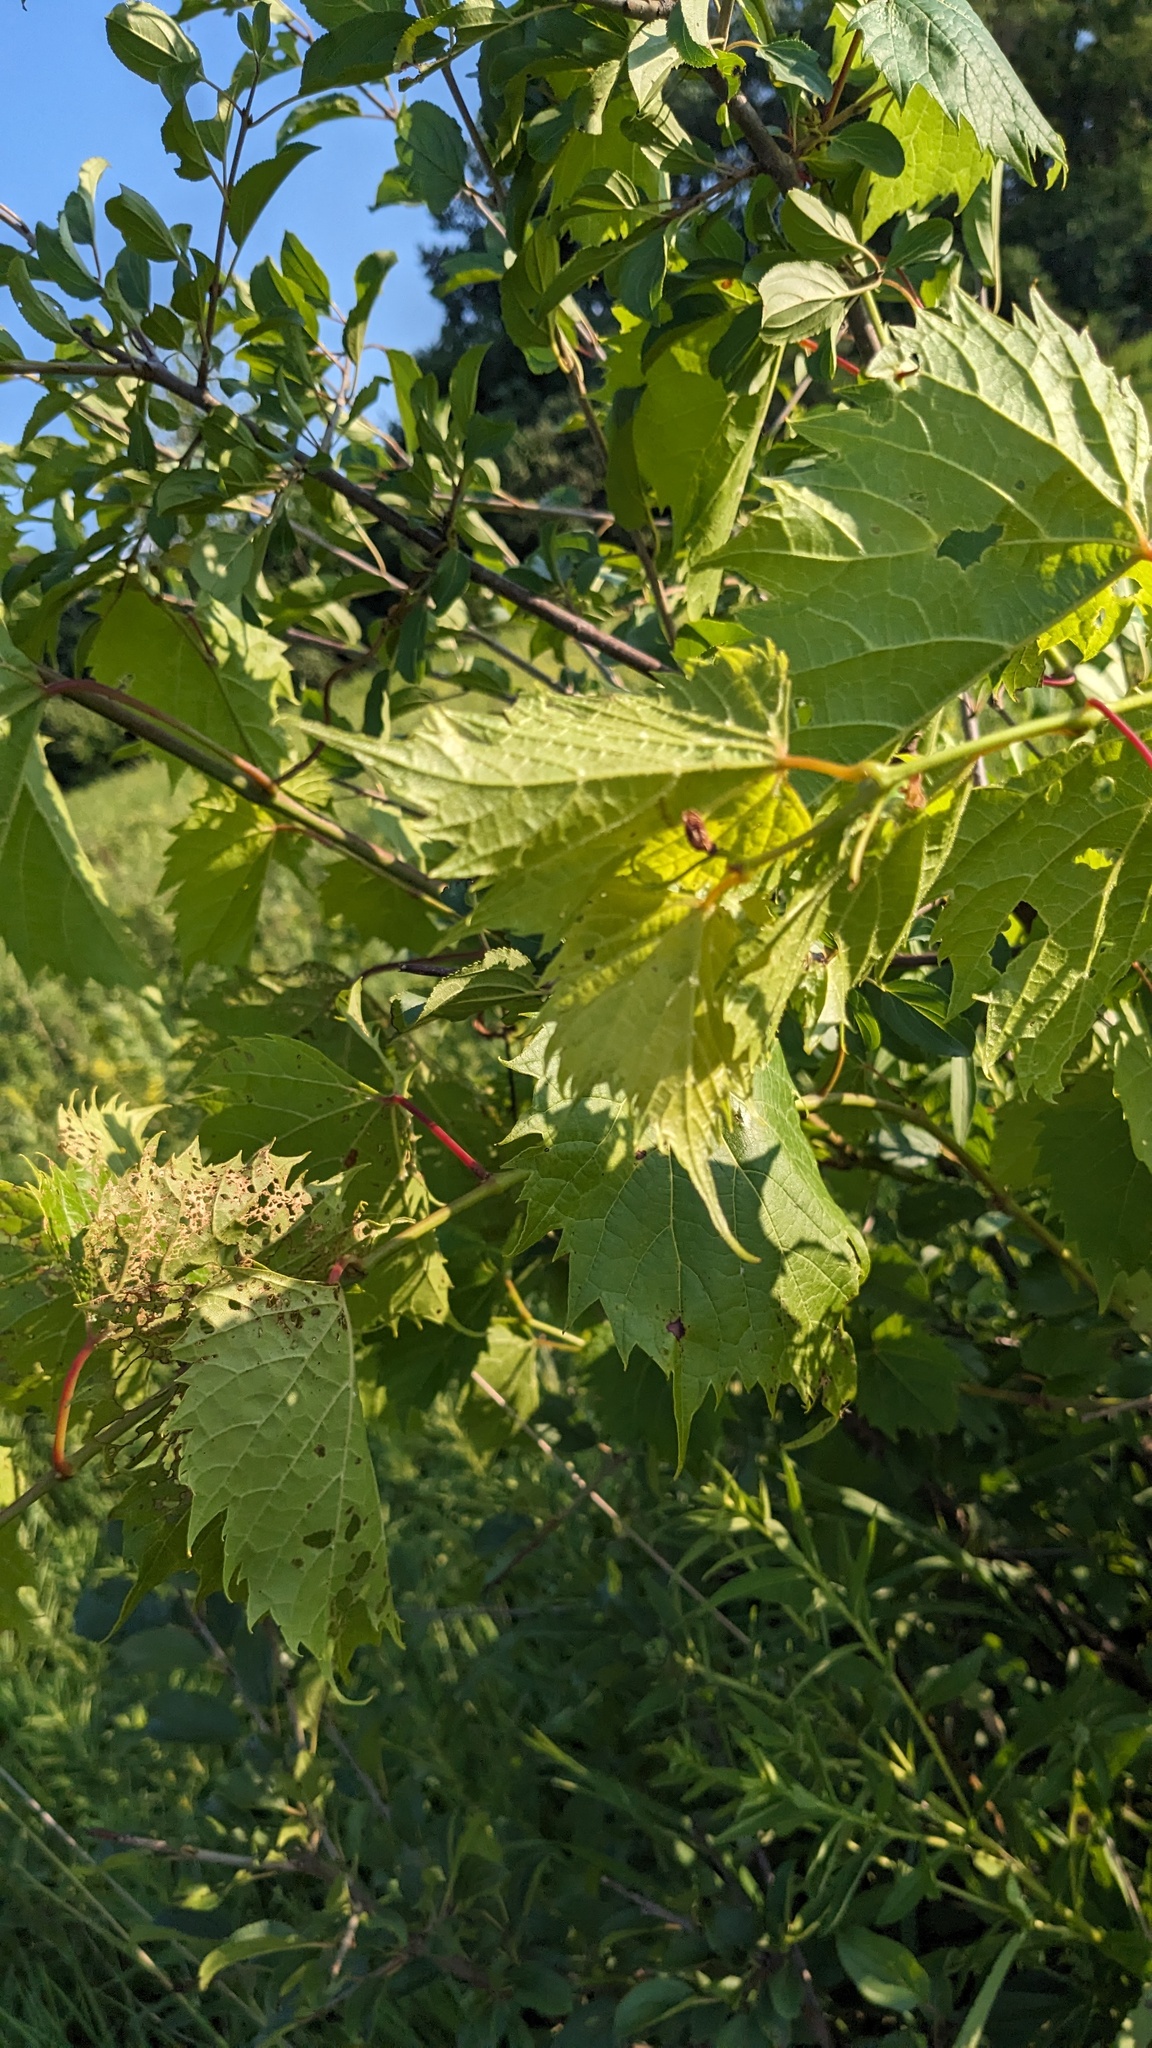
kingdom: Plantae
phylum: Tracheophyta
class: Magnoliopsida
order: Vitales
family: Vitaceae
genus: Vitis
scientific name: Vitis riparia
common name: Frost grape
